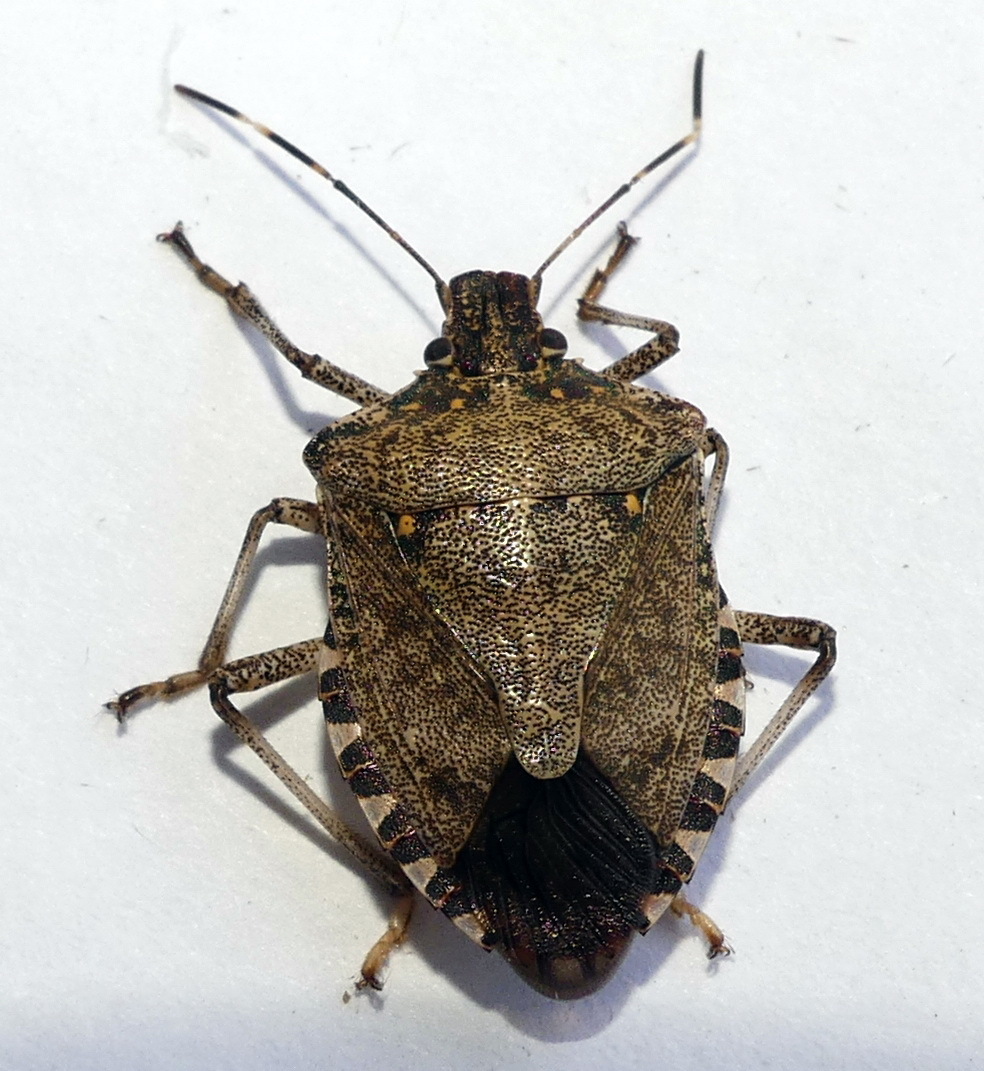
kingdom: Animalia
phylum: Arthropoda
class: Insecta
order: Hemiptera
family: Pentatomidae
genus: Halyomorpha
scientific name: Halyomorpha halys
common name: Brown marmorated stink bug
